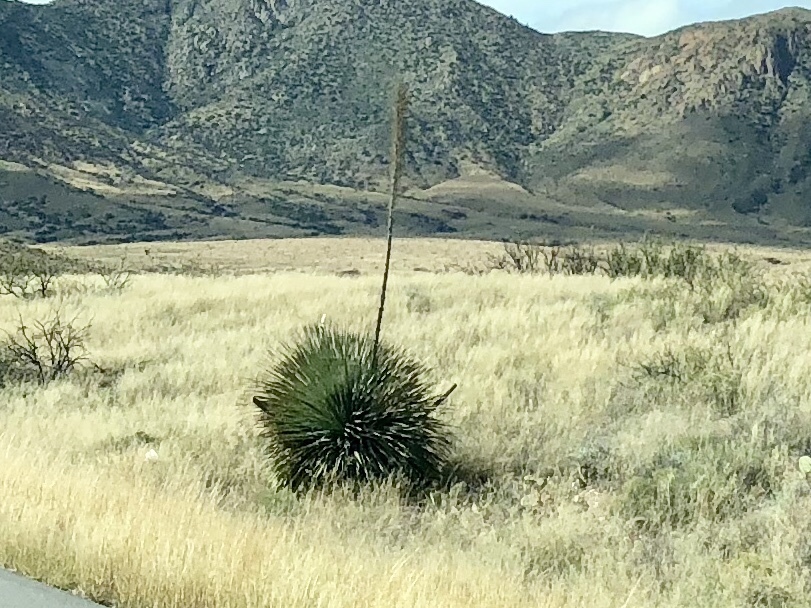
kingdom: Plantae
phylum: Tracheophyta
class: Liliopsida
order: Asparagales
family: Asparagaceae
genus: Dasylirion
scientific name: Dasylirion wheeleri
